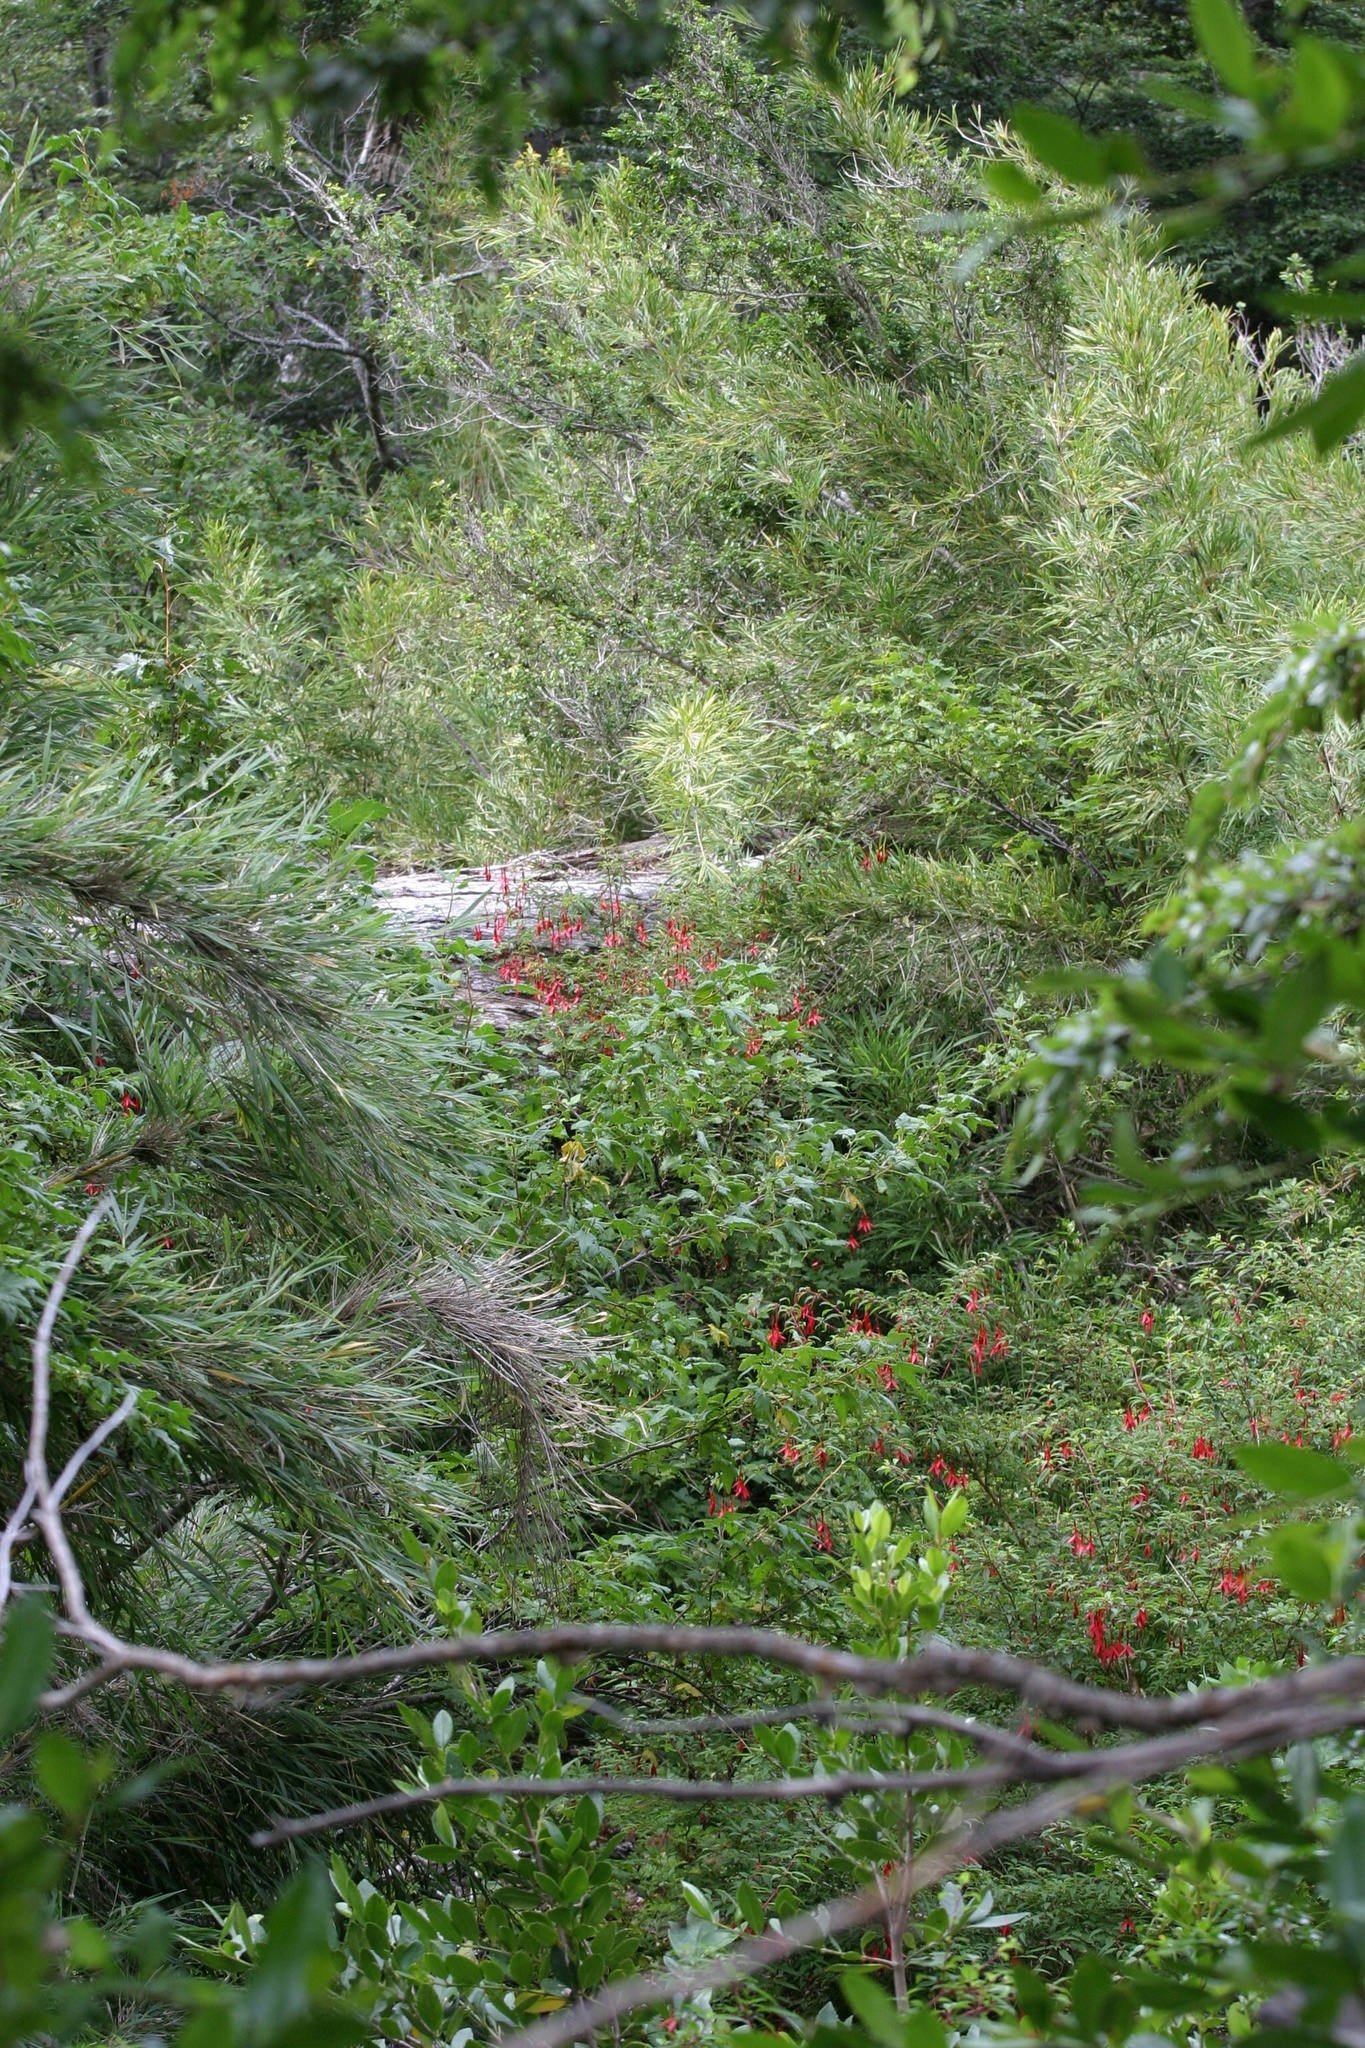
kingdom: Plantae
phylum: Tracheophyta
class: Magnoliopsida
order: Myrtales
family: Onagraceae
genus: Fuchsia
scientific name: Fuchsia magellanica
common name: Hardy fuchsia
